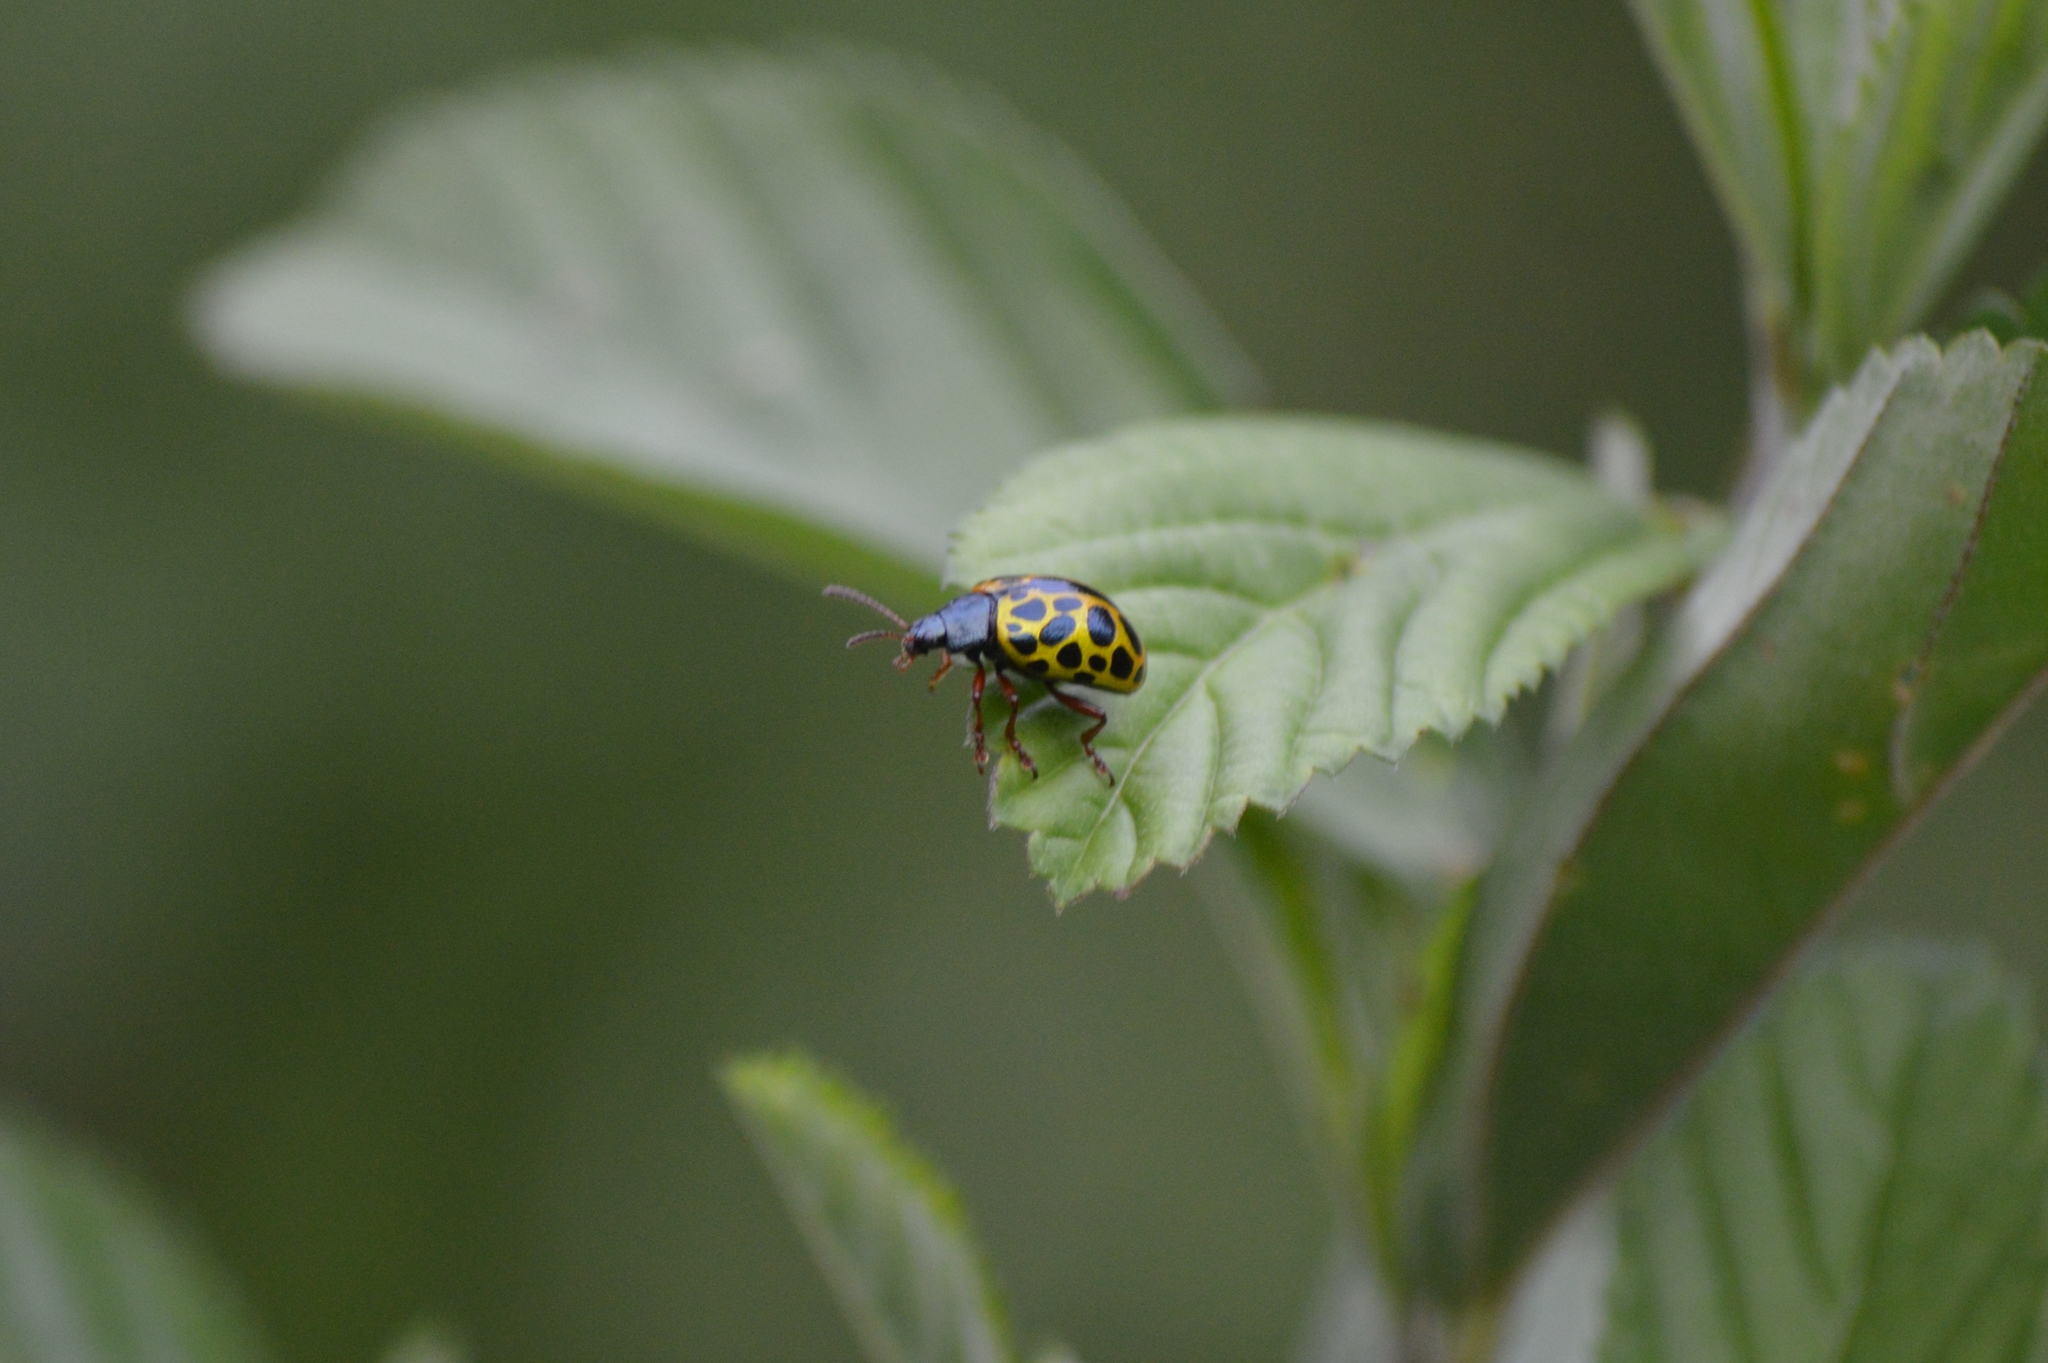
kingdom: Animalia
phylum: Arthropoda
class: Insecta
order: Coleoptera
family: Chrysomelidae
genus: Calligrapha
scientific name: Calligrapha polyspila
